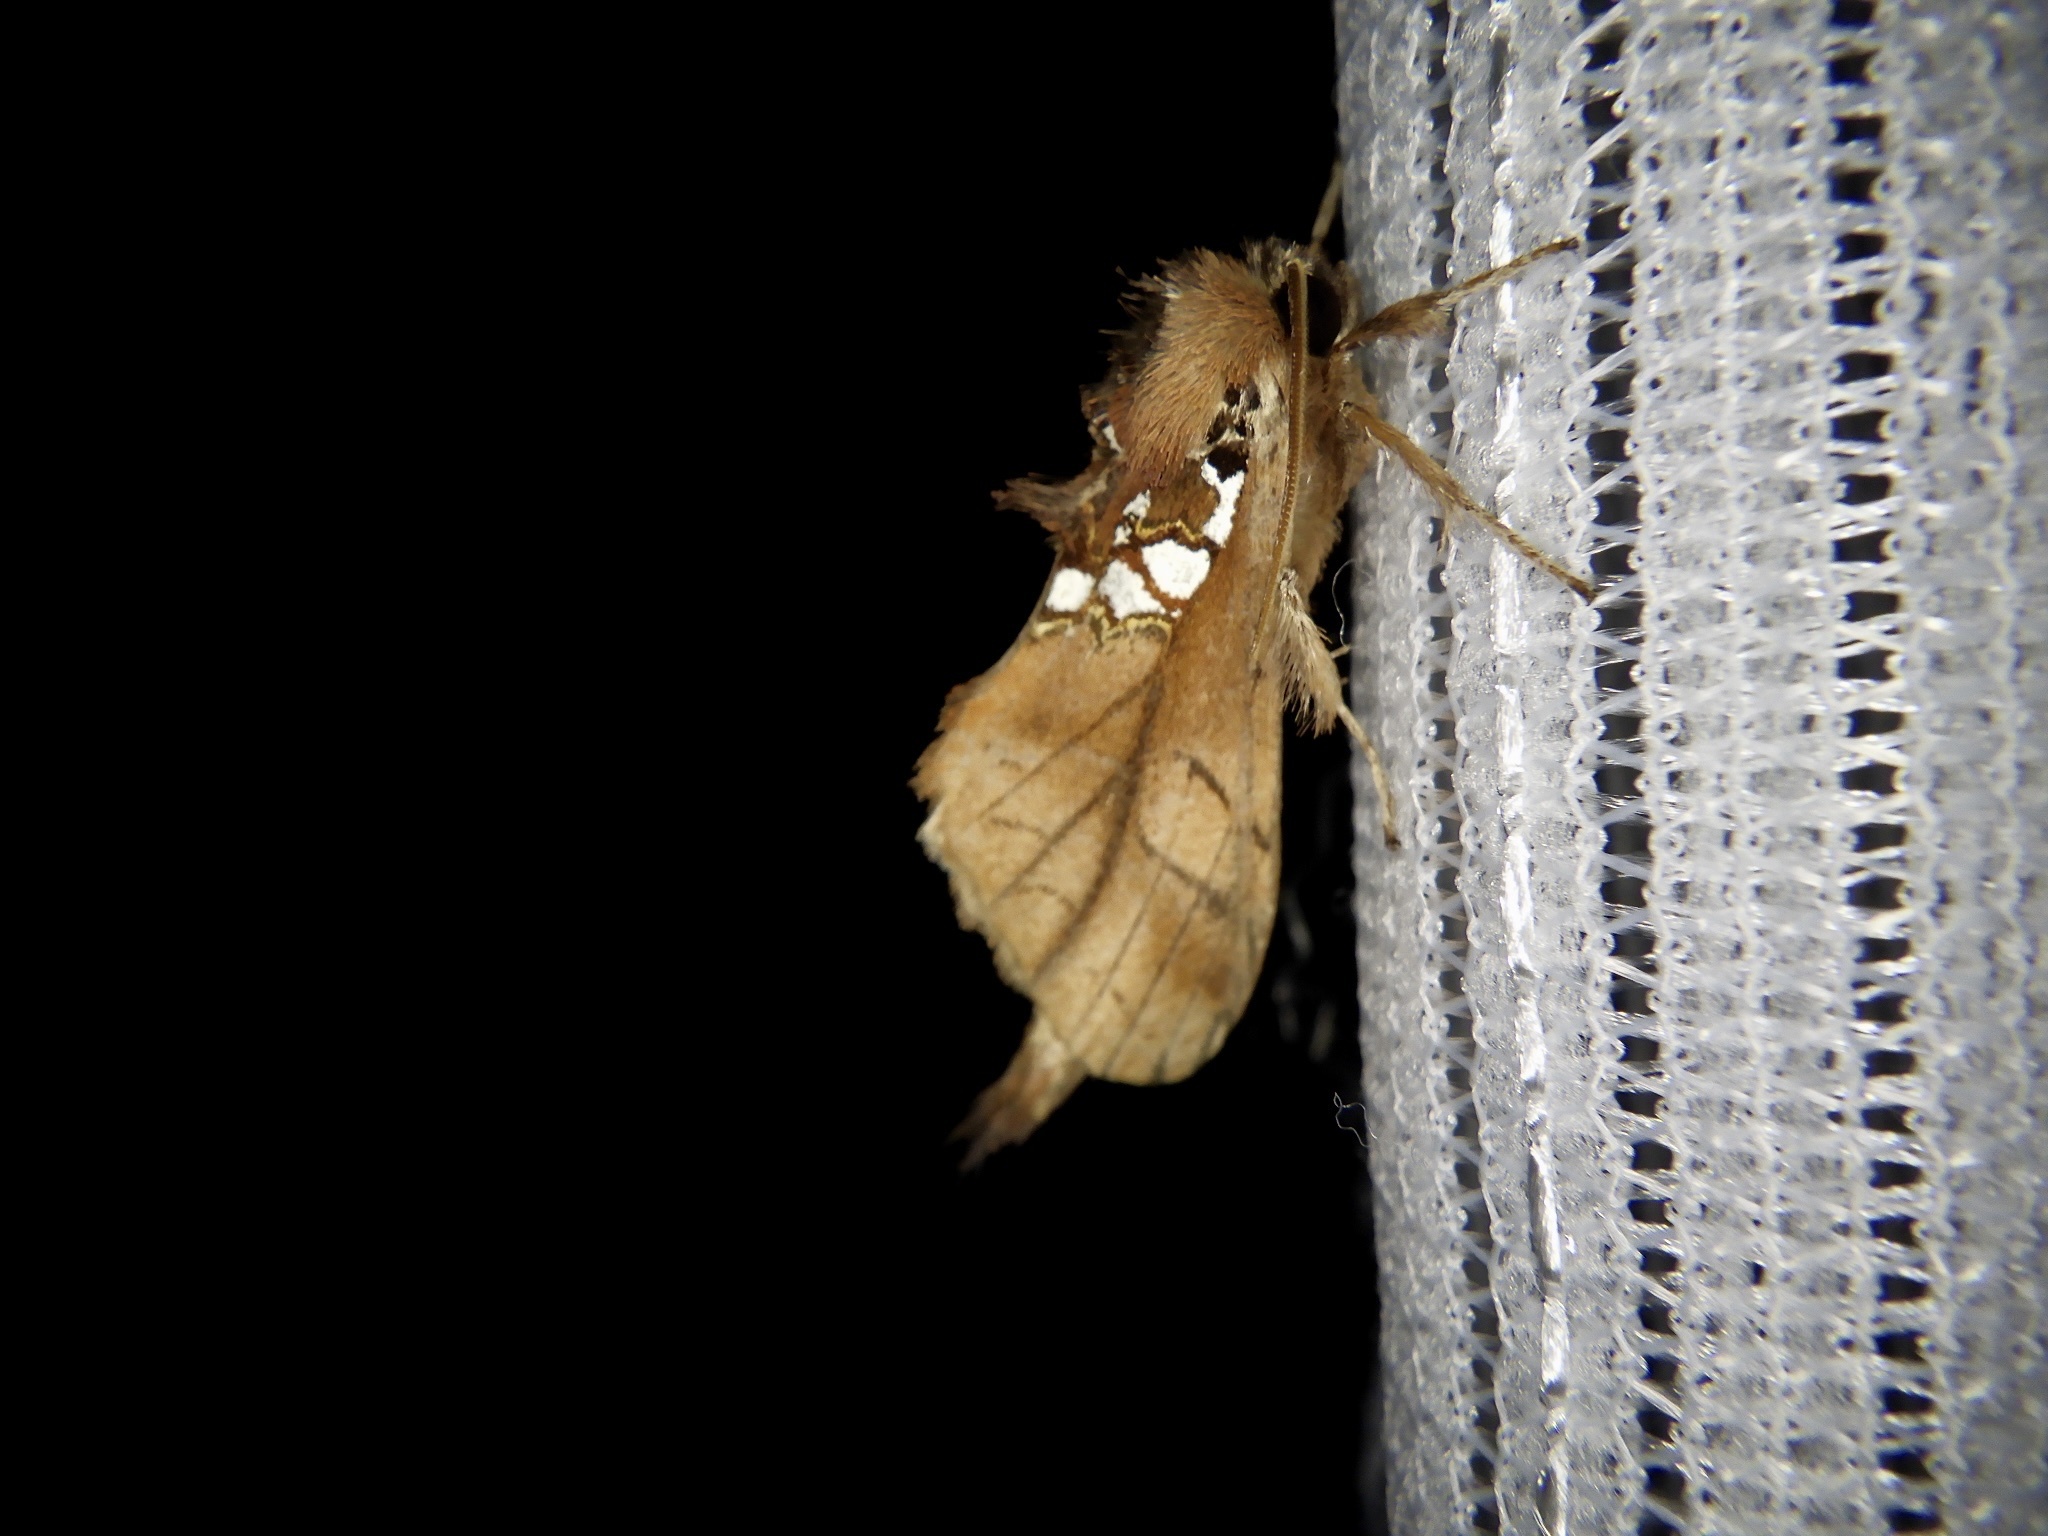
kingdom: Animalia
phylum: Arthropoda
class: Insecta
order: Lepidoptera
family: Notodontidae
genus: Spatalia
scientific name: Spatalia dives
